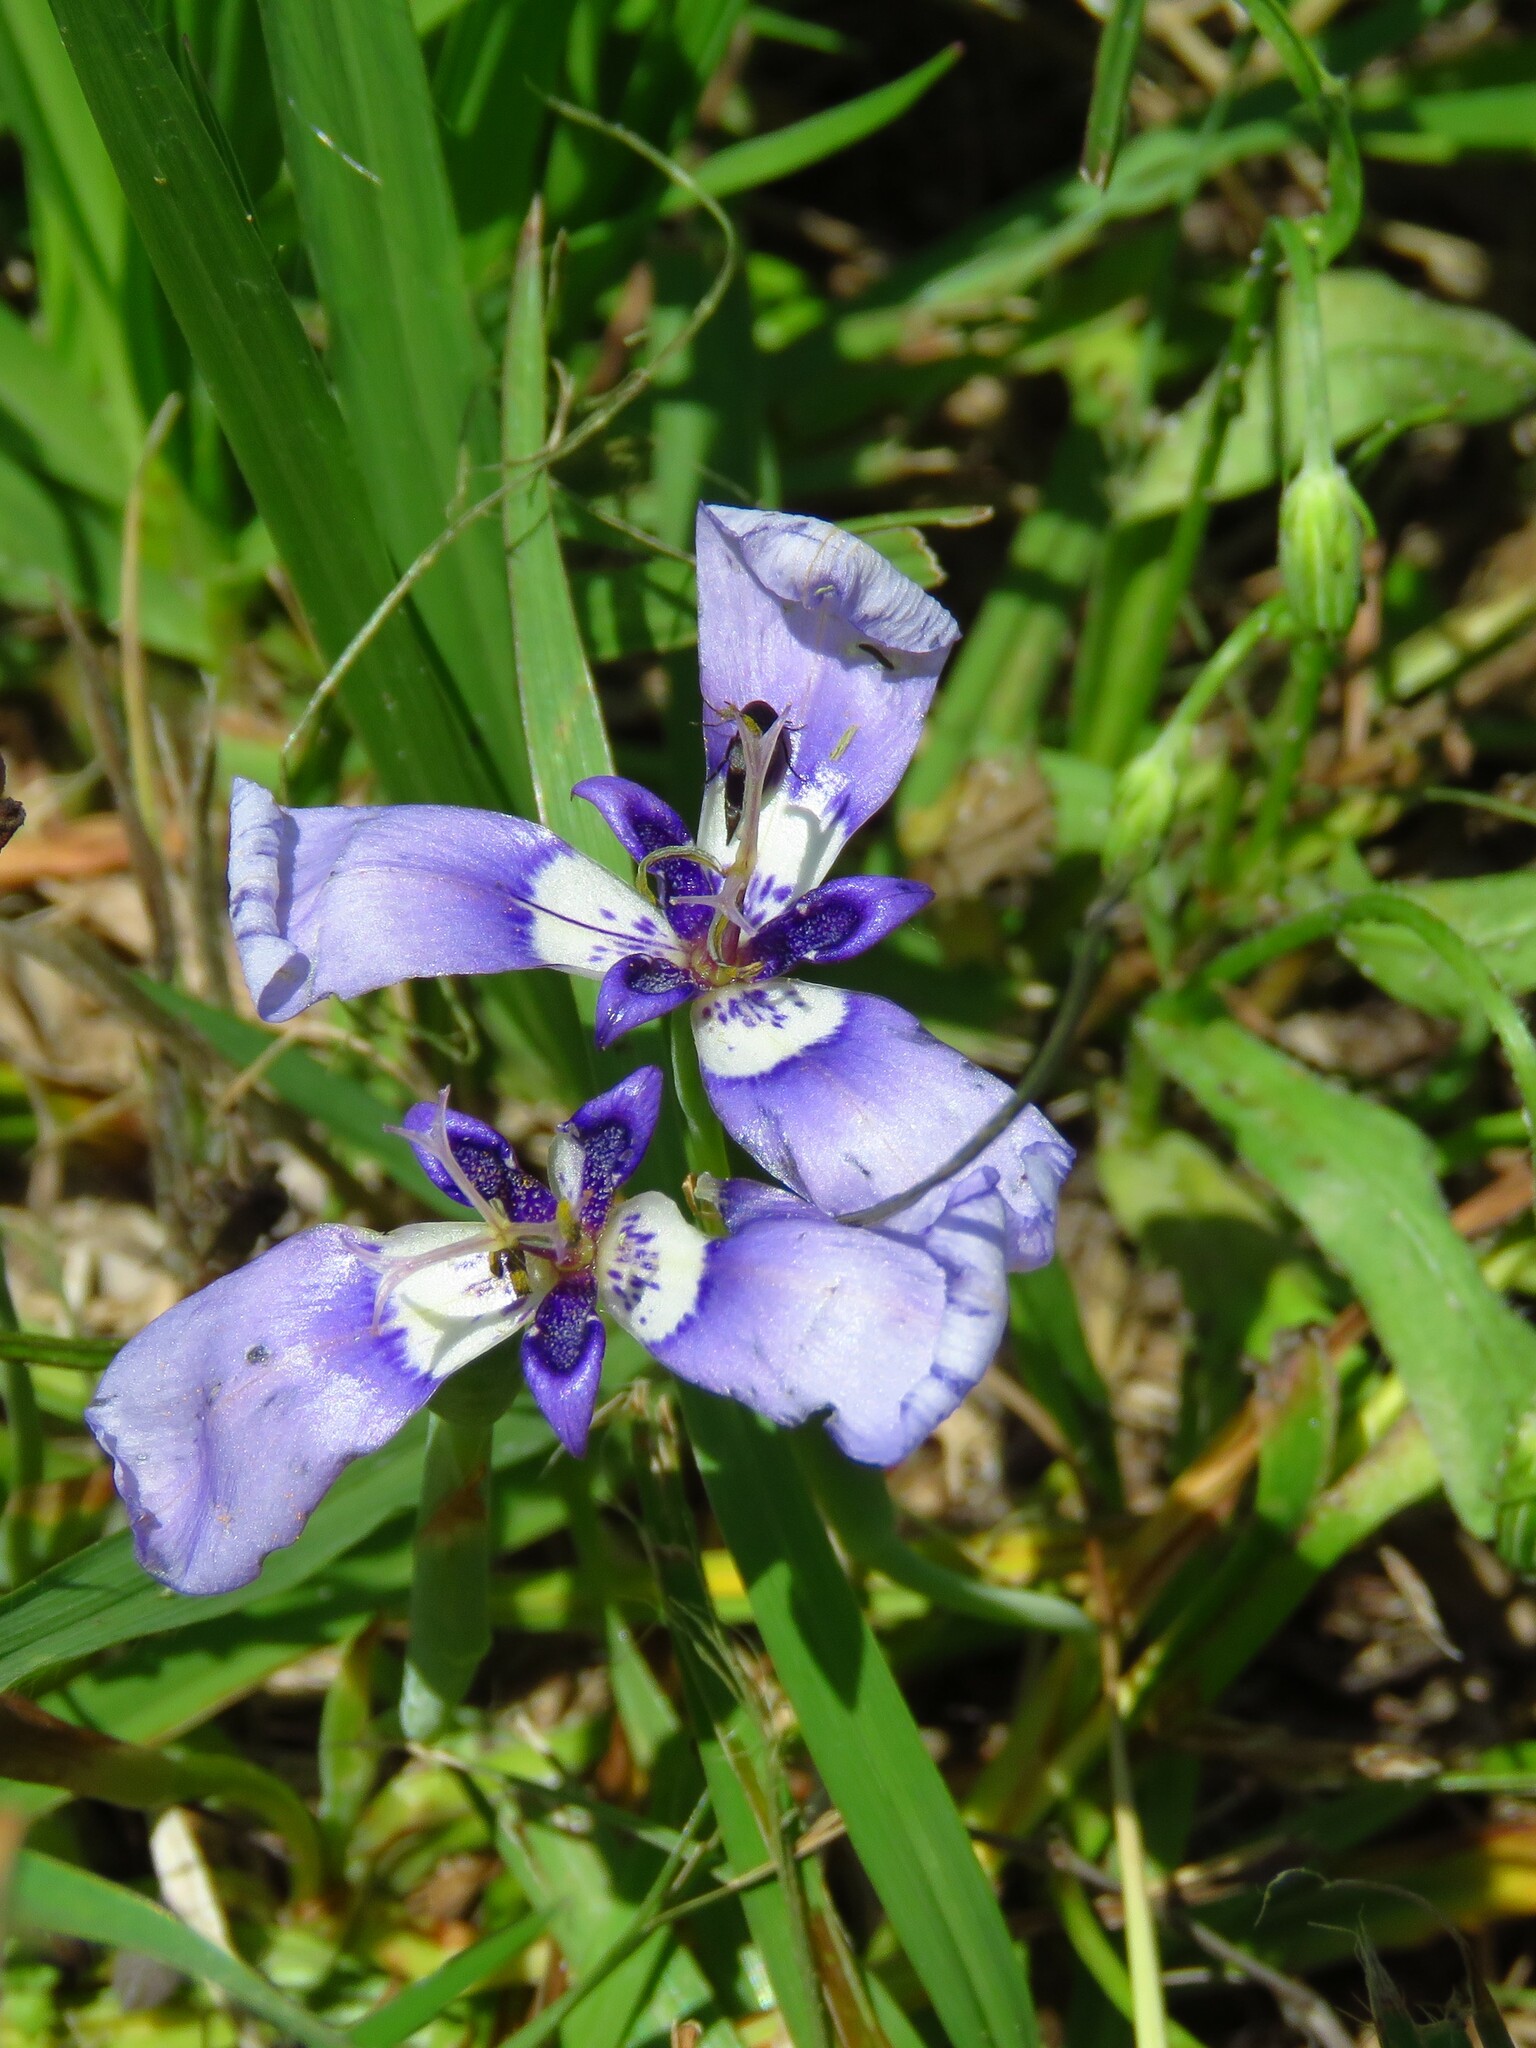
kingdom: Plantae
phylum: Tracheophyta
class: Liliopsida
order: Asparagales
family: Iridaceae
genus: Herbertia
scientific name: Herbertia lahue
